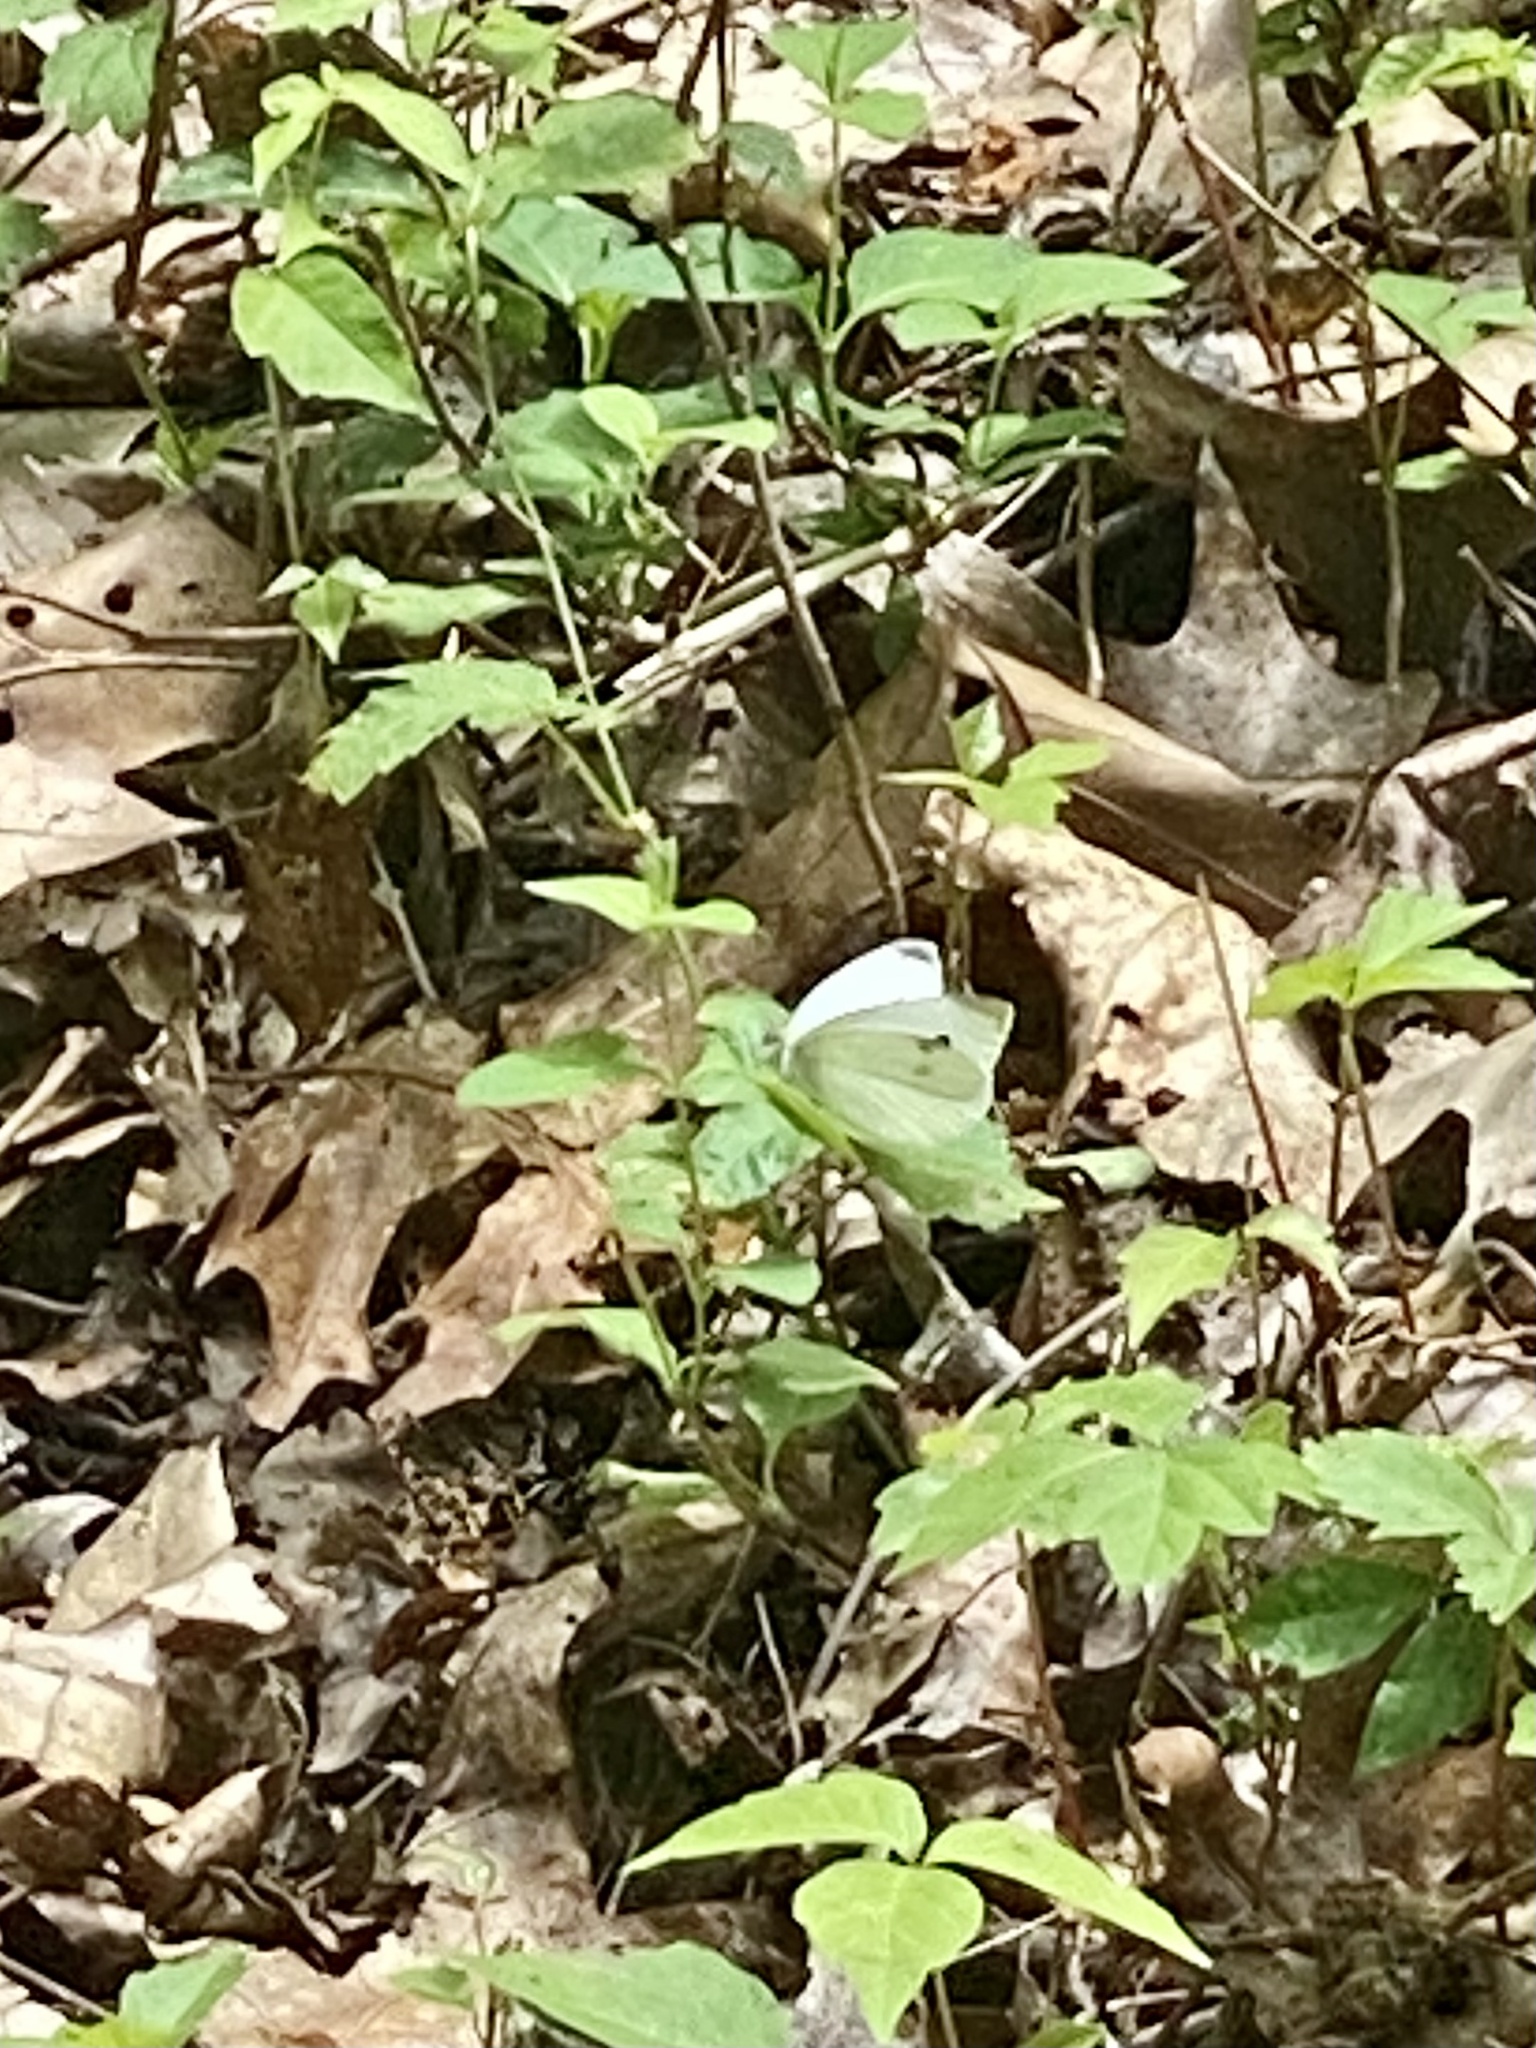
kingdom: Animalia
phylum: Arthropoda
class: Insecta
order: Lepidoptera
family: Pieridae
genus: Pieris
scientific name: Pieris rapae
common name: Small white
